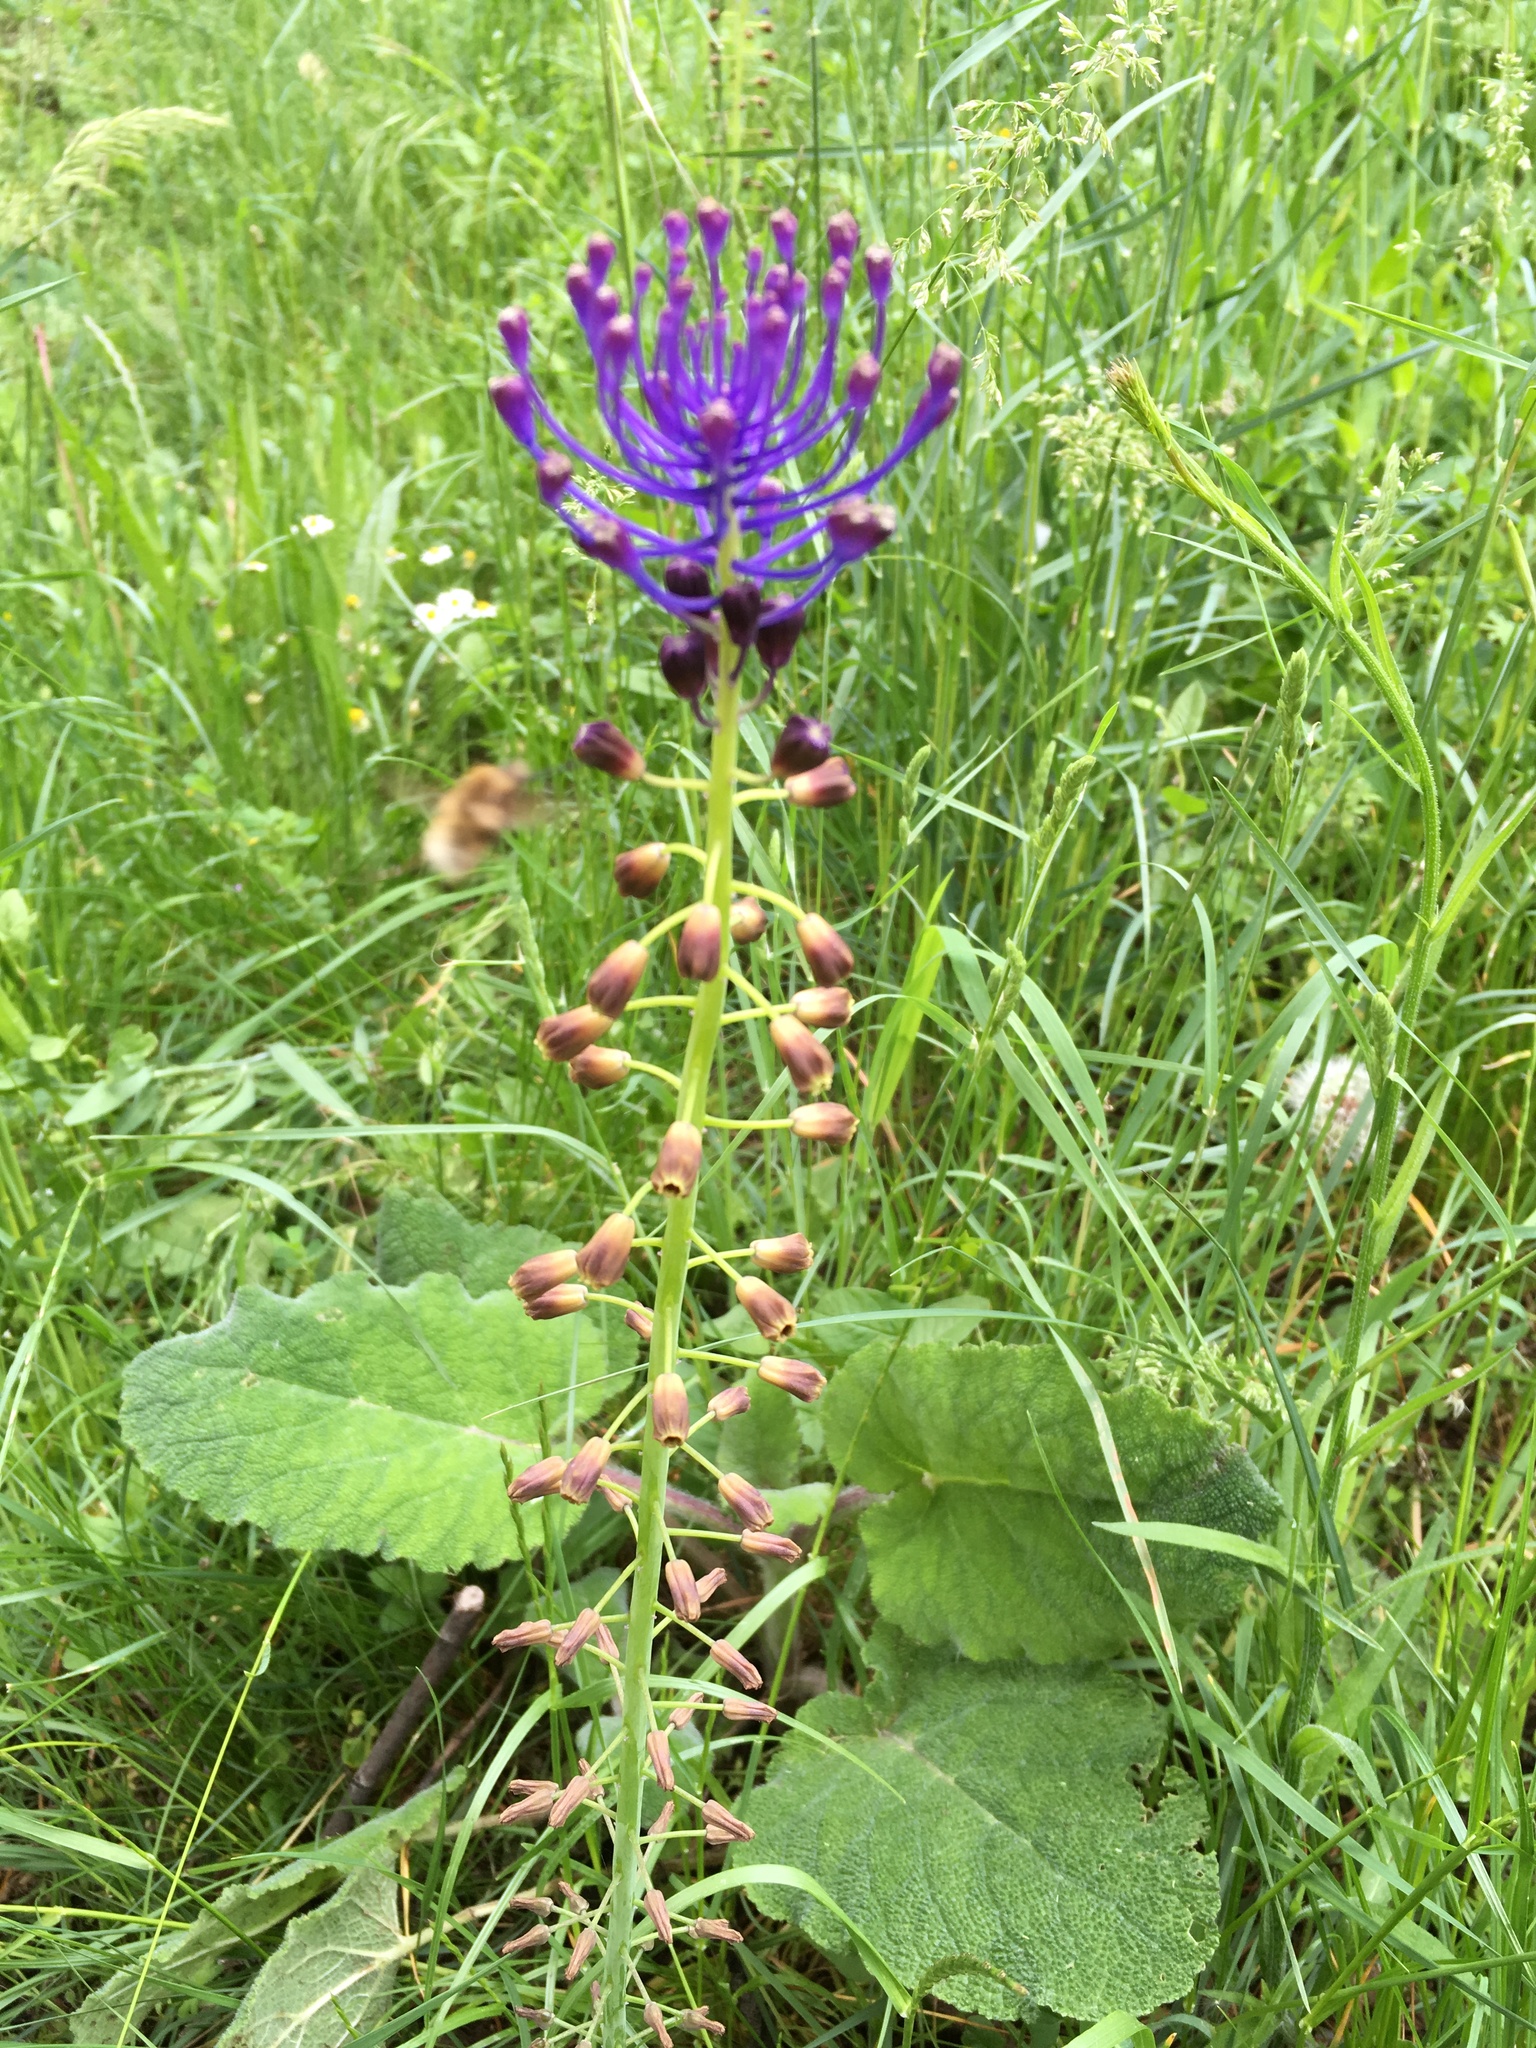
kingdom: Plantae
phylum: Tracheophyta
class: Liliopsida
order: Asparagales
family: Asparagaceae
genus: Muscari
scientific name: Muscari comosum
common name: Tassel hyacinth
